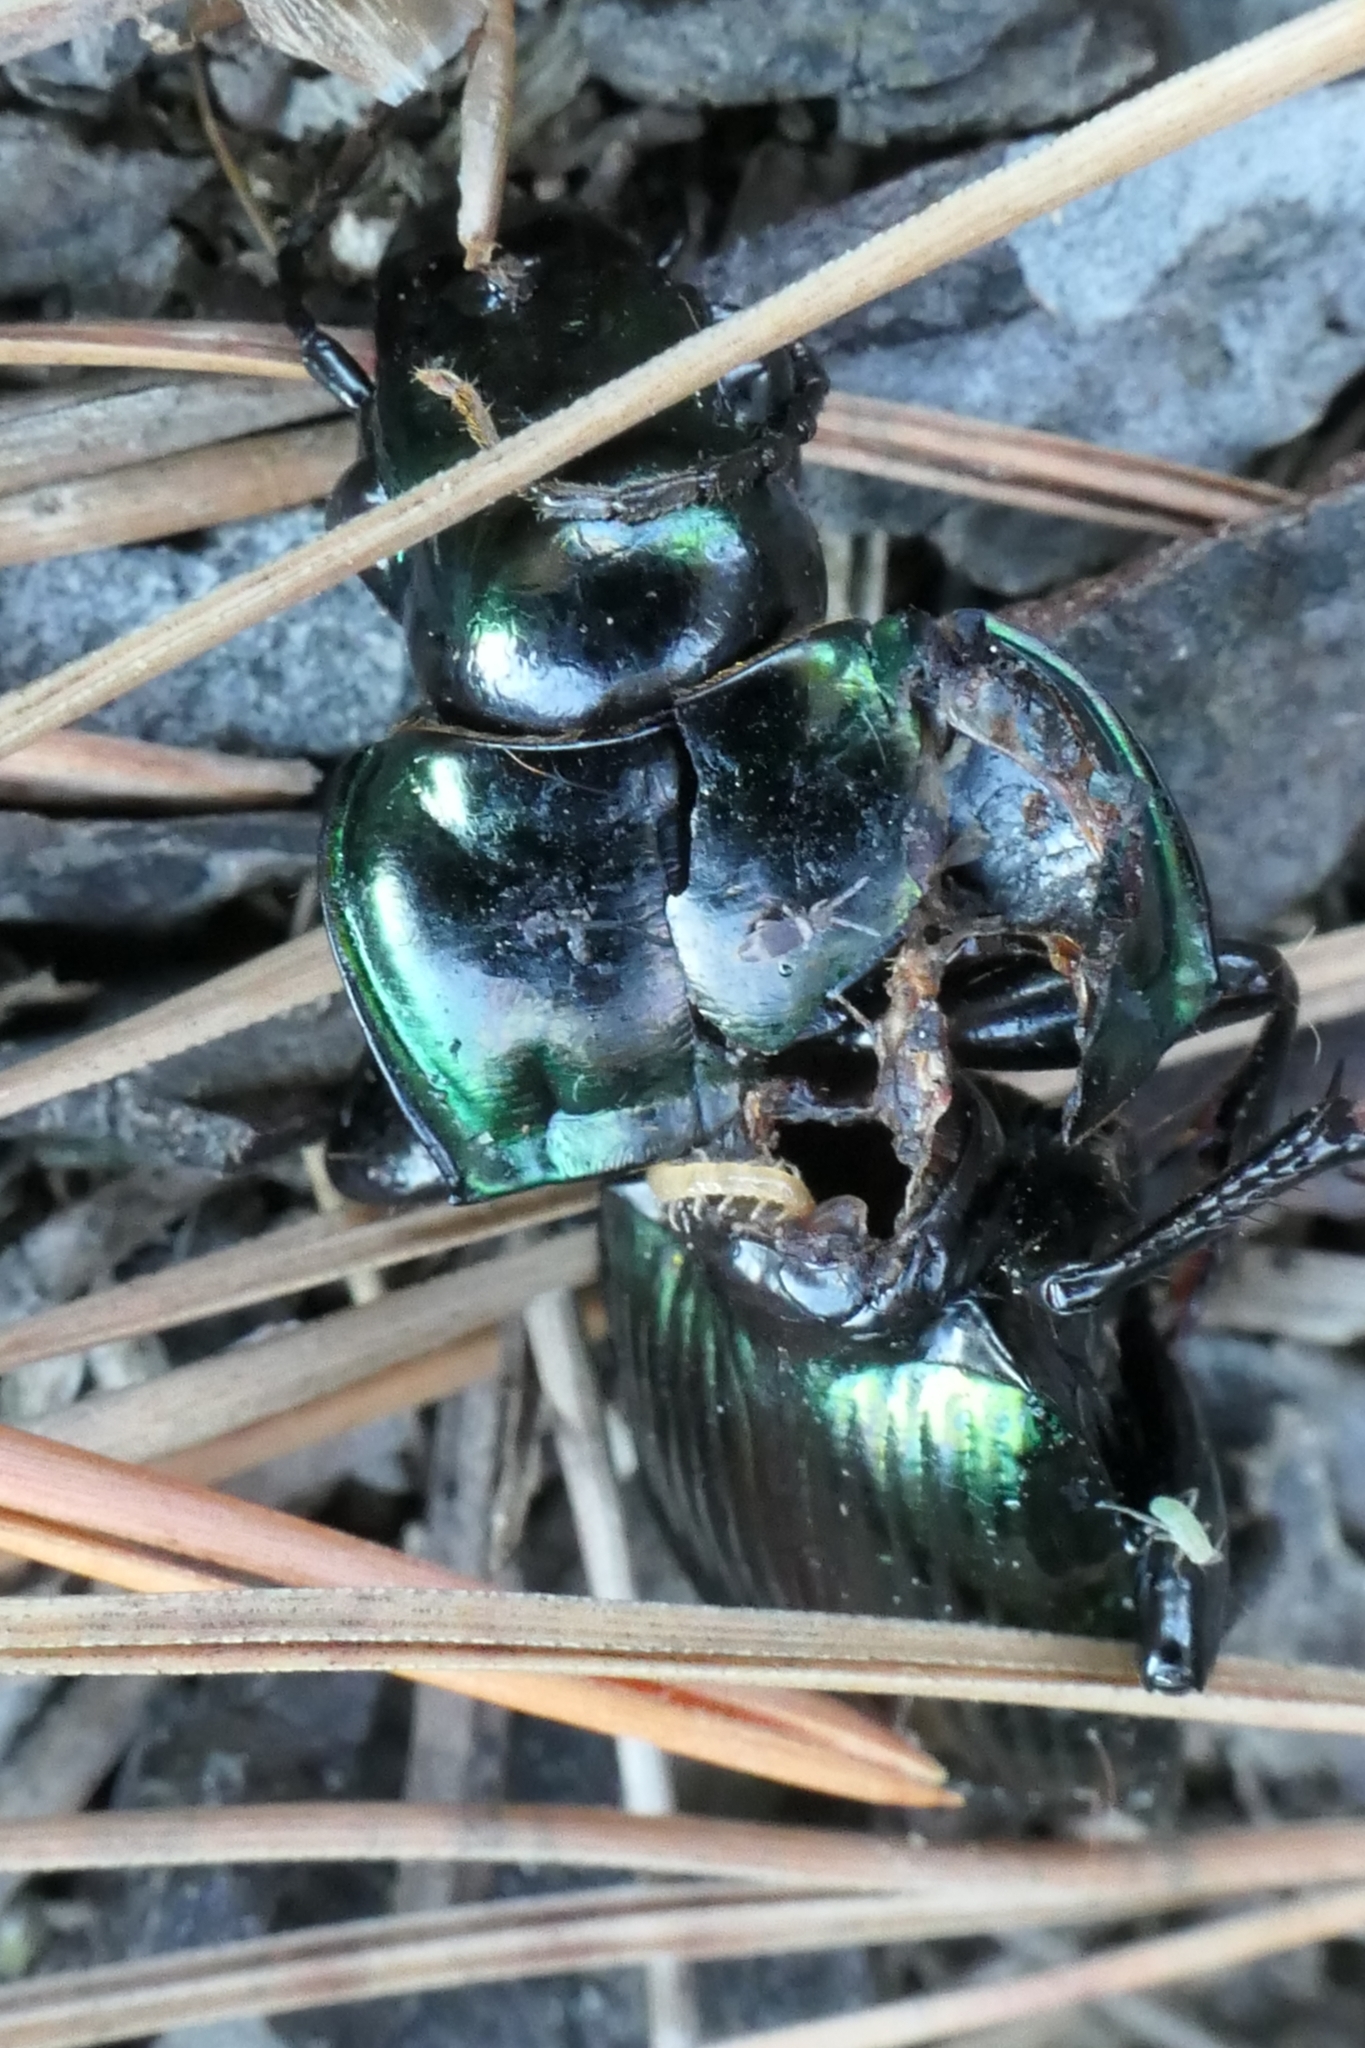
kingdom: Animalia
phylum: Arthropoda
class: Insecta
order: Coleoptera
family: Carabidae
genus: Megadromus
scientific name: Megadromus antarcticus
